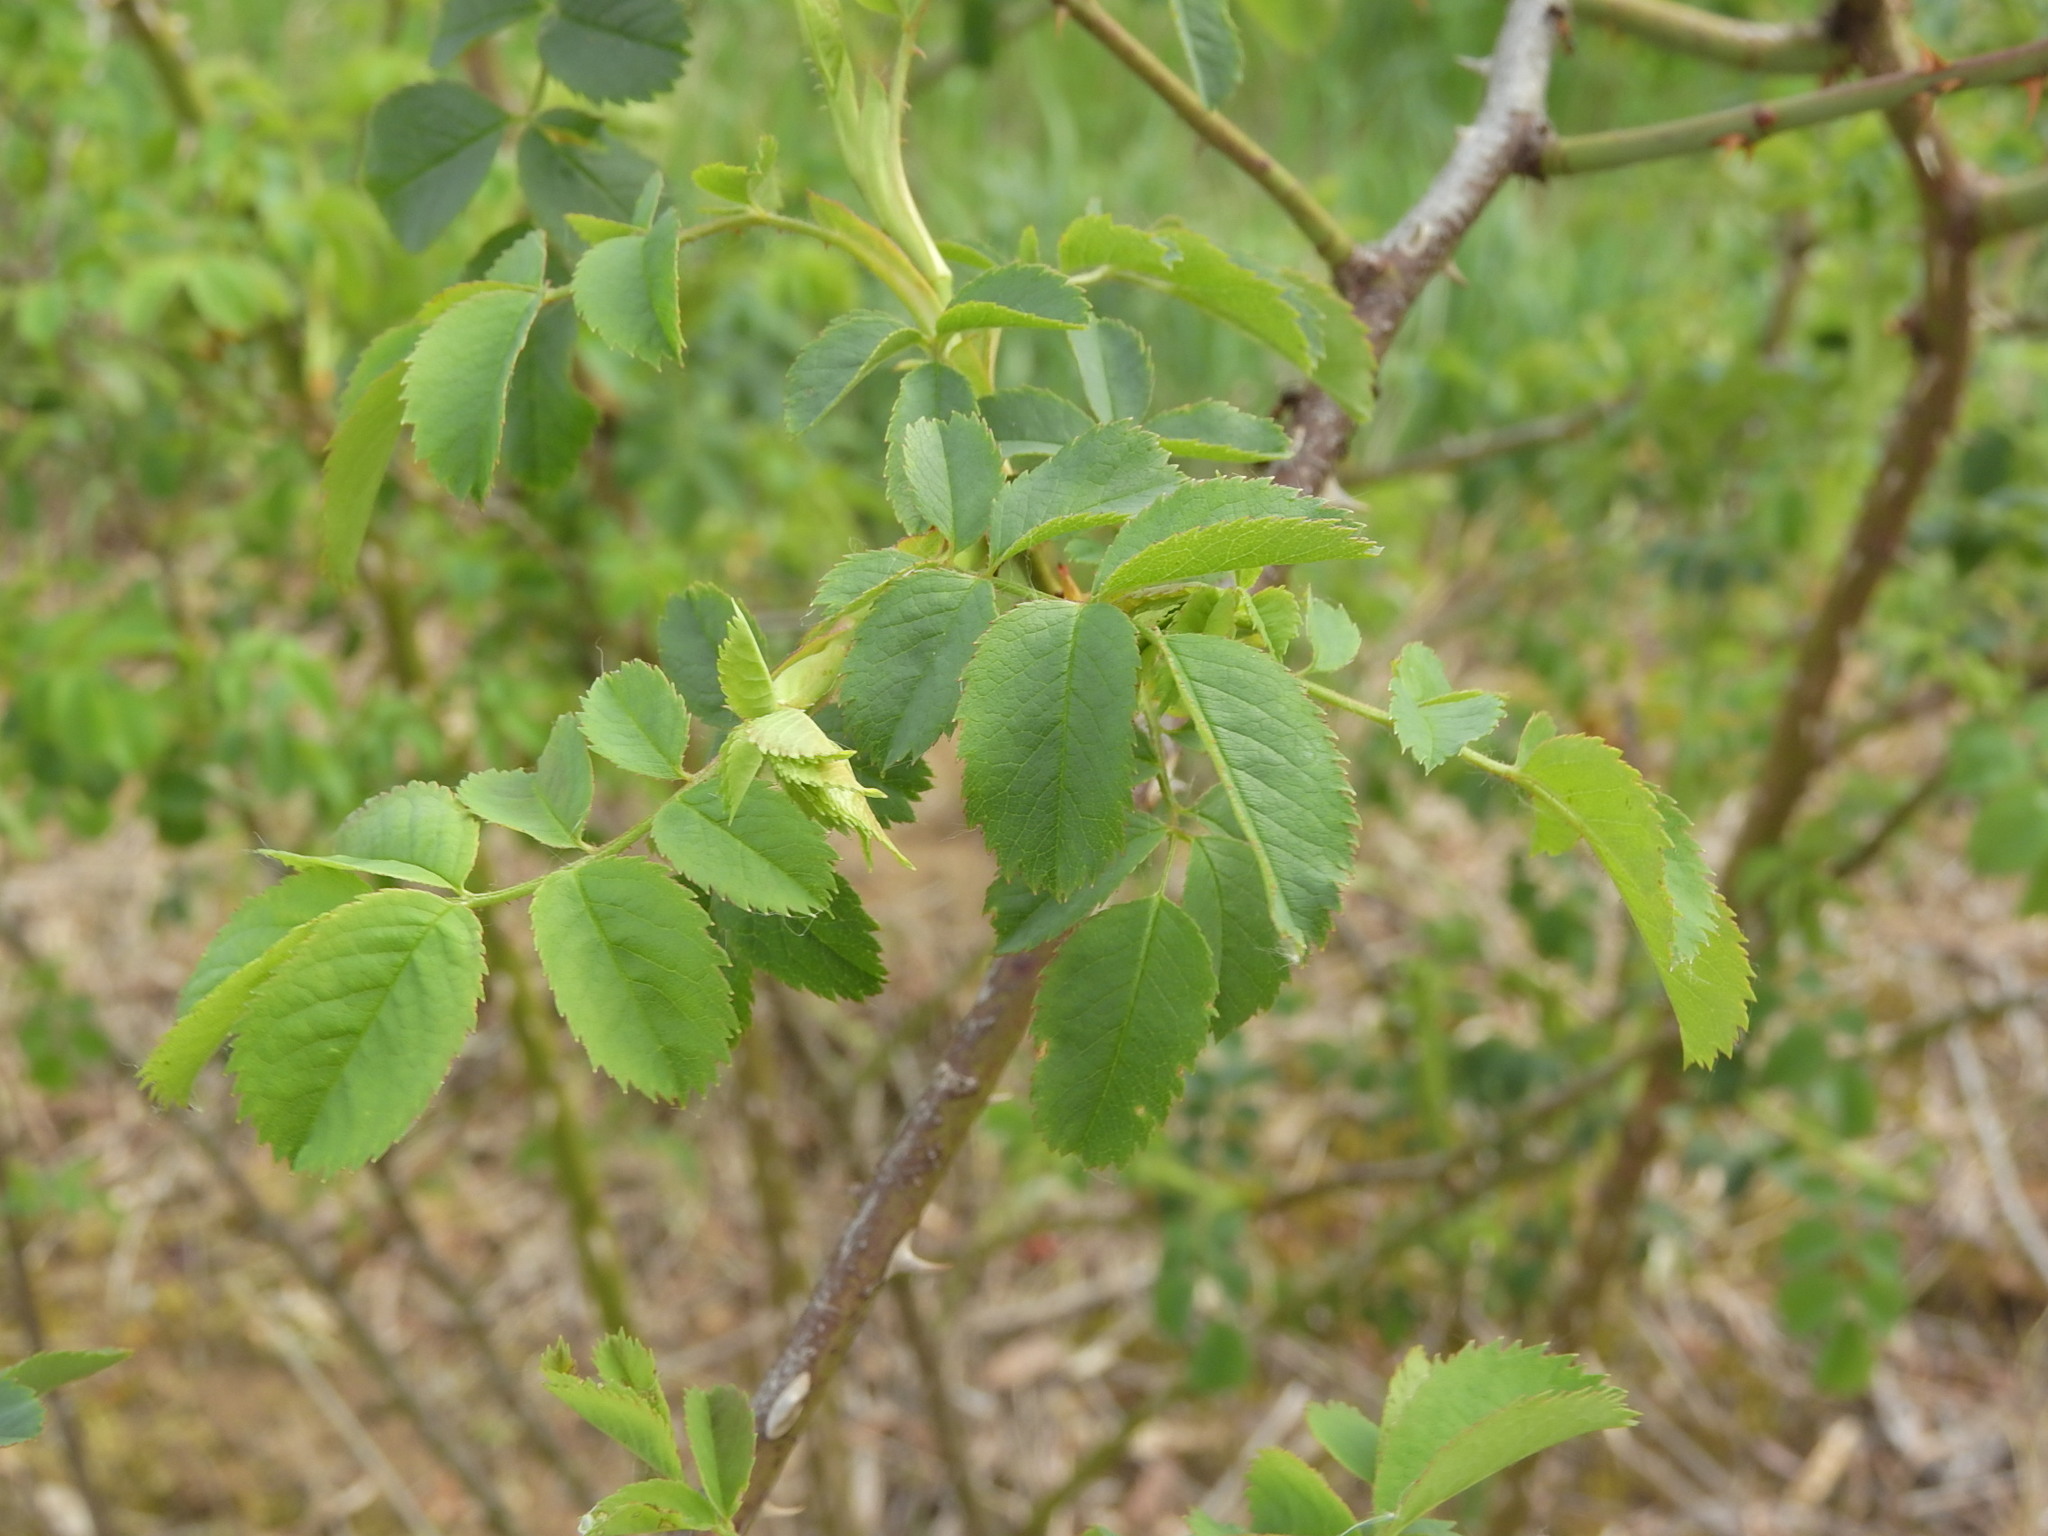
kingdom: Plantae
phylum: Tracheophyta
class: Magnoliopsida
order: Rosales
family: Rosaceae
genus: Rosa
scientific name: Rosa canina
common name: Dog rose
